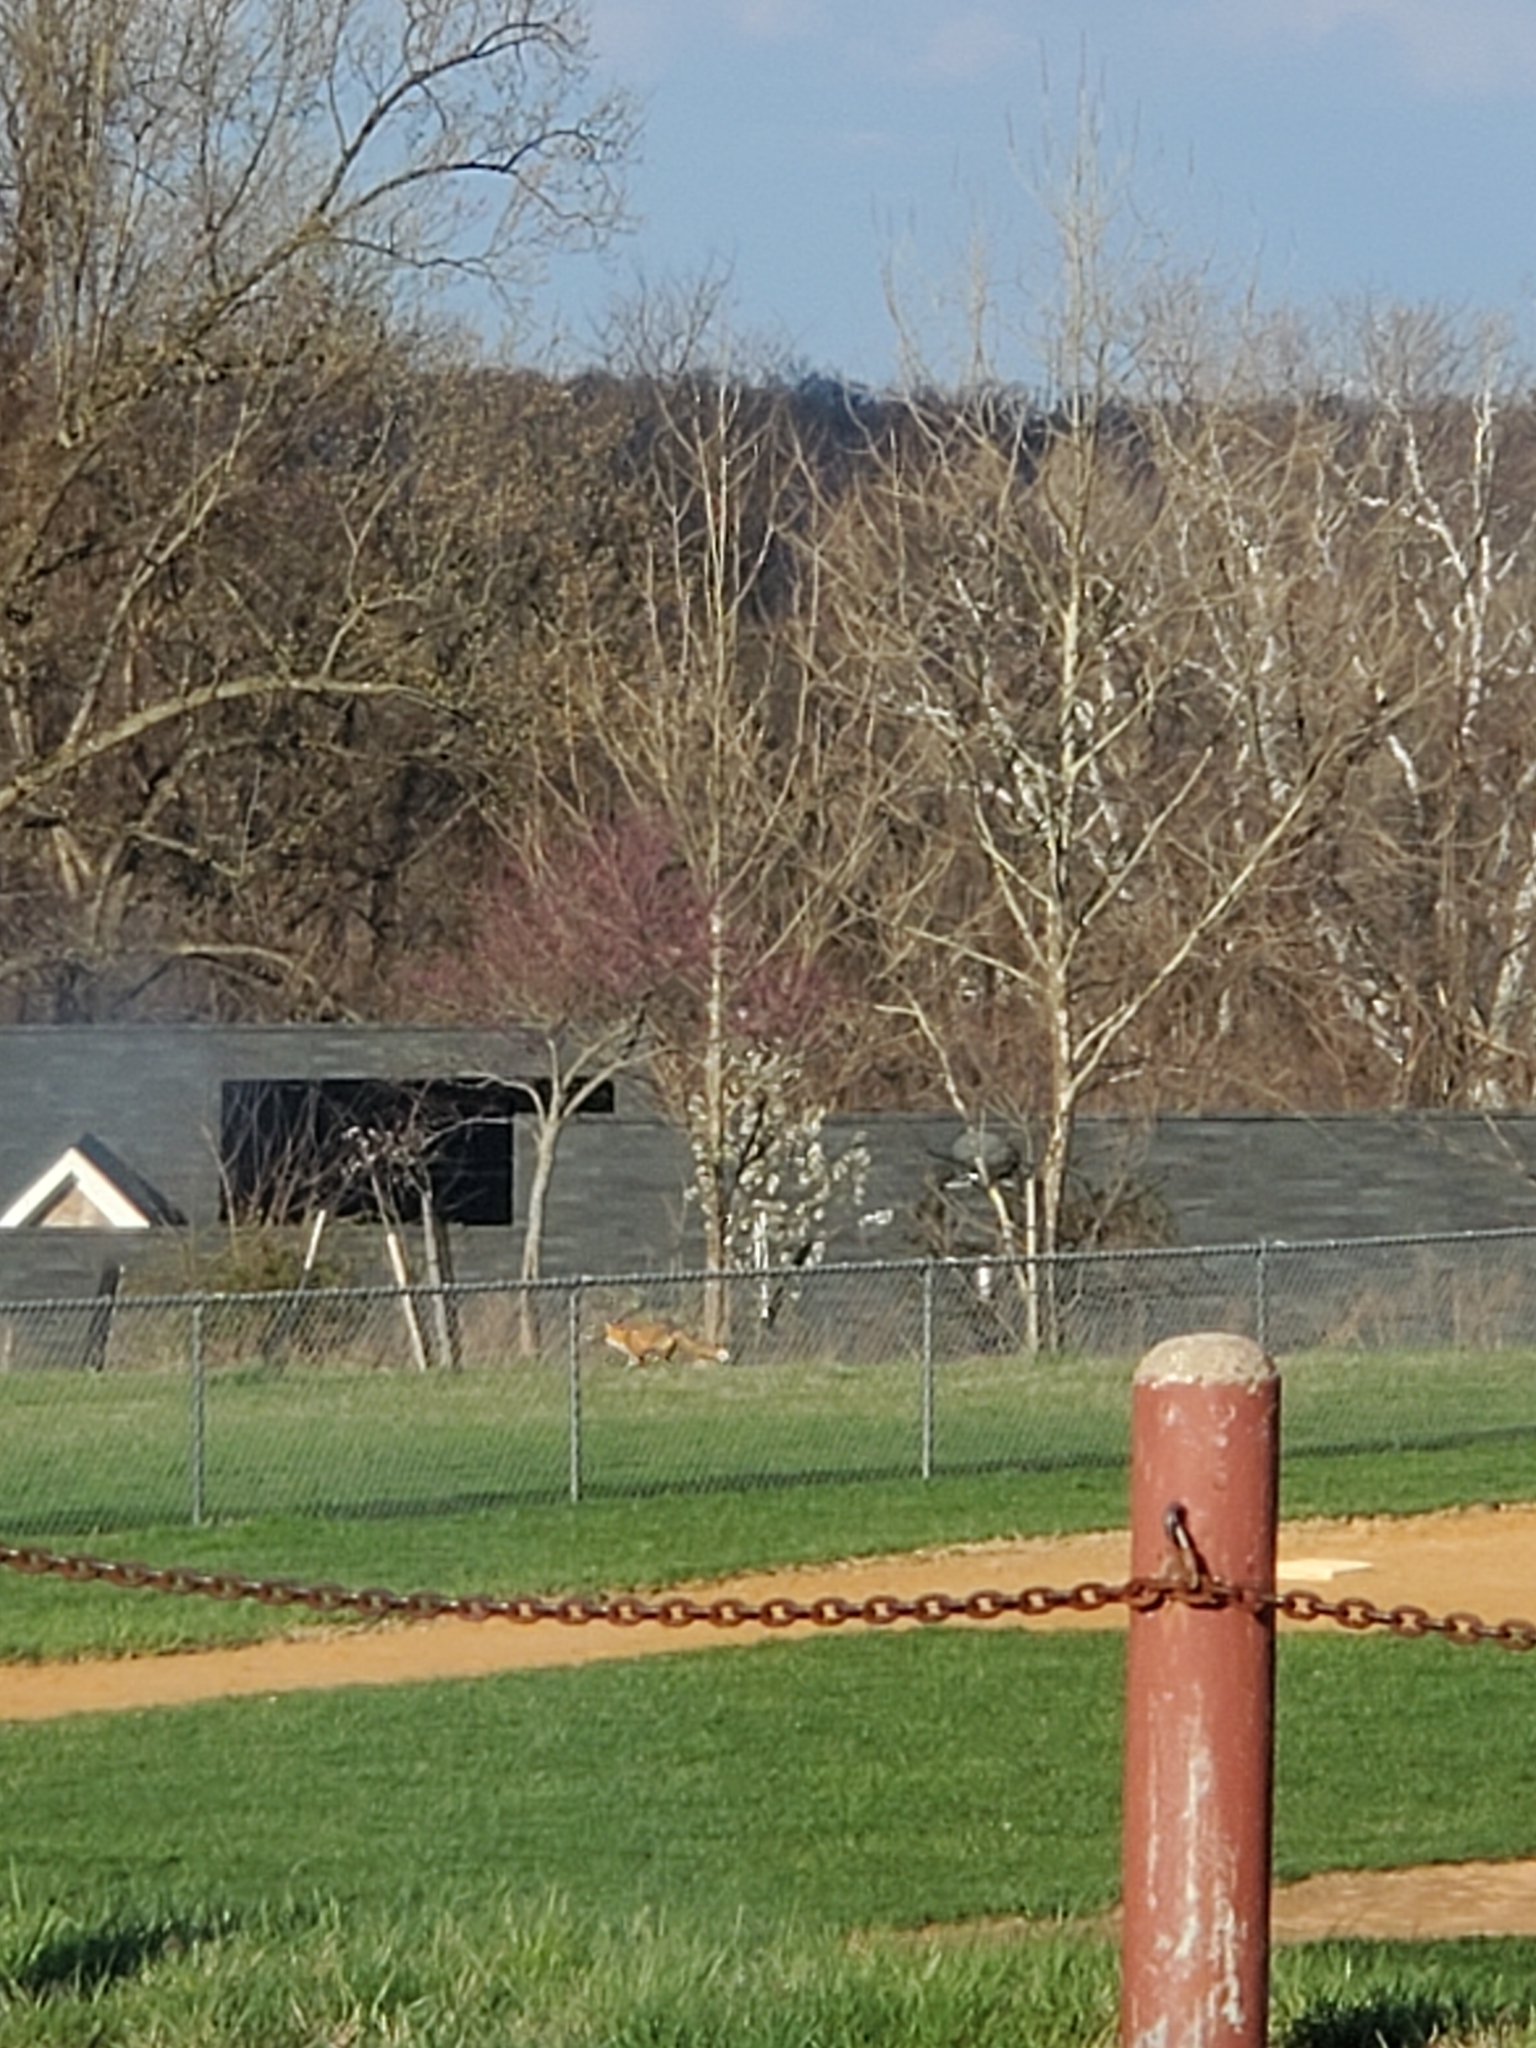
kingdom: Animalia
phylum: Chordata
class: Mammalia
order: Carnivora
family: Canidae
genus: Vulpes
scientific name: Vulpes vulpes
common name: Red fox
